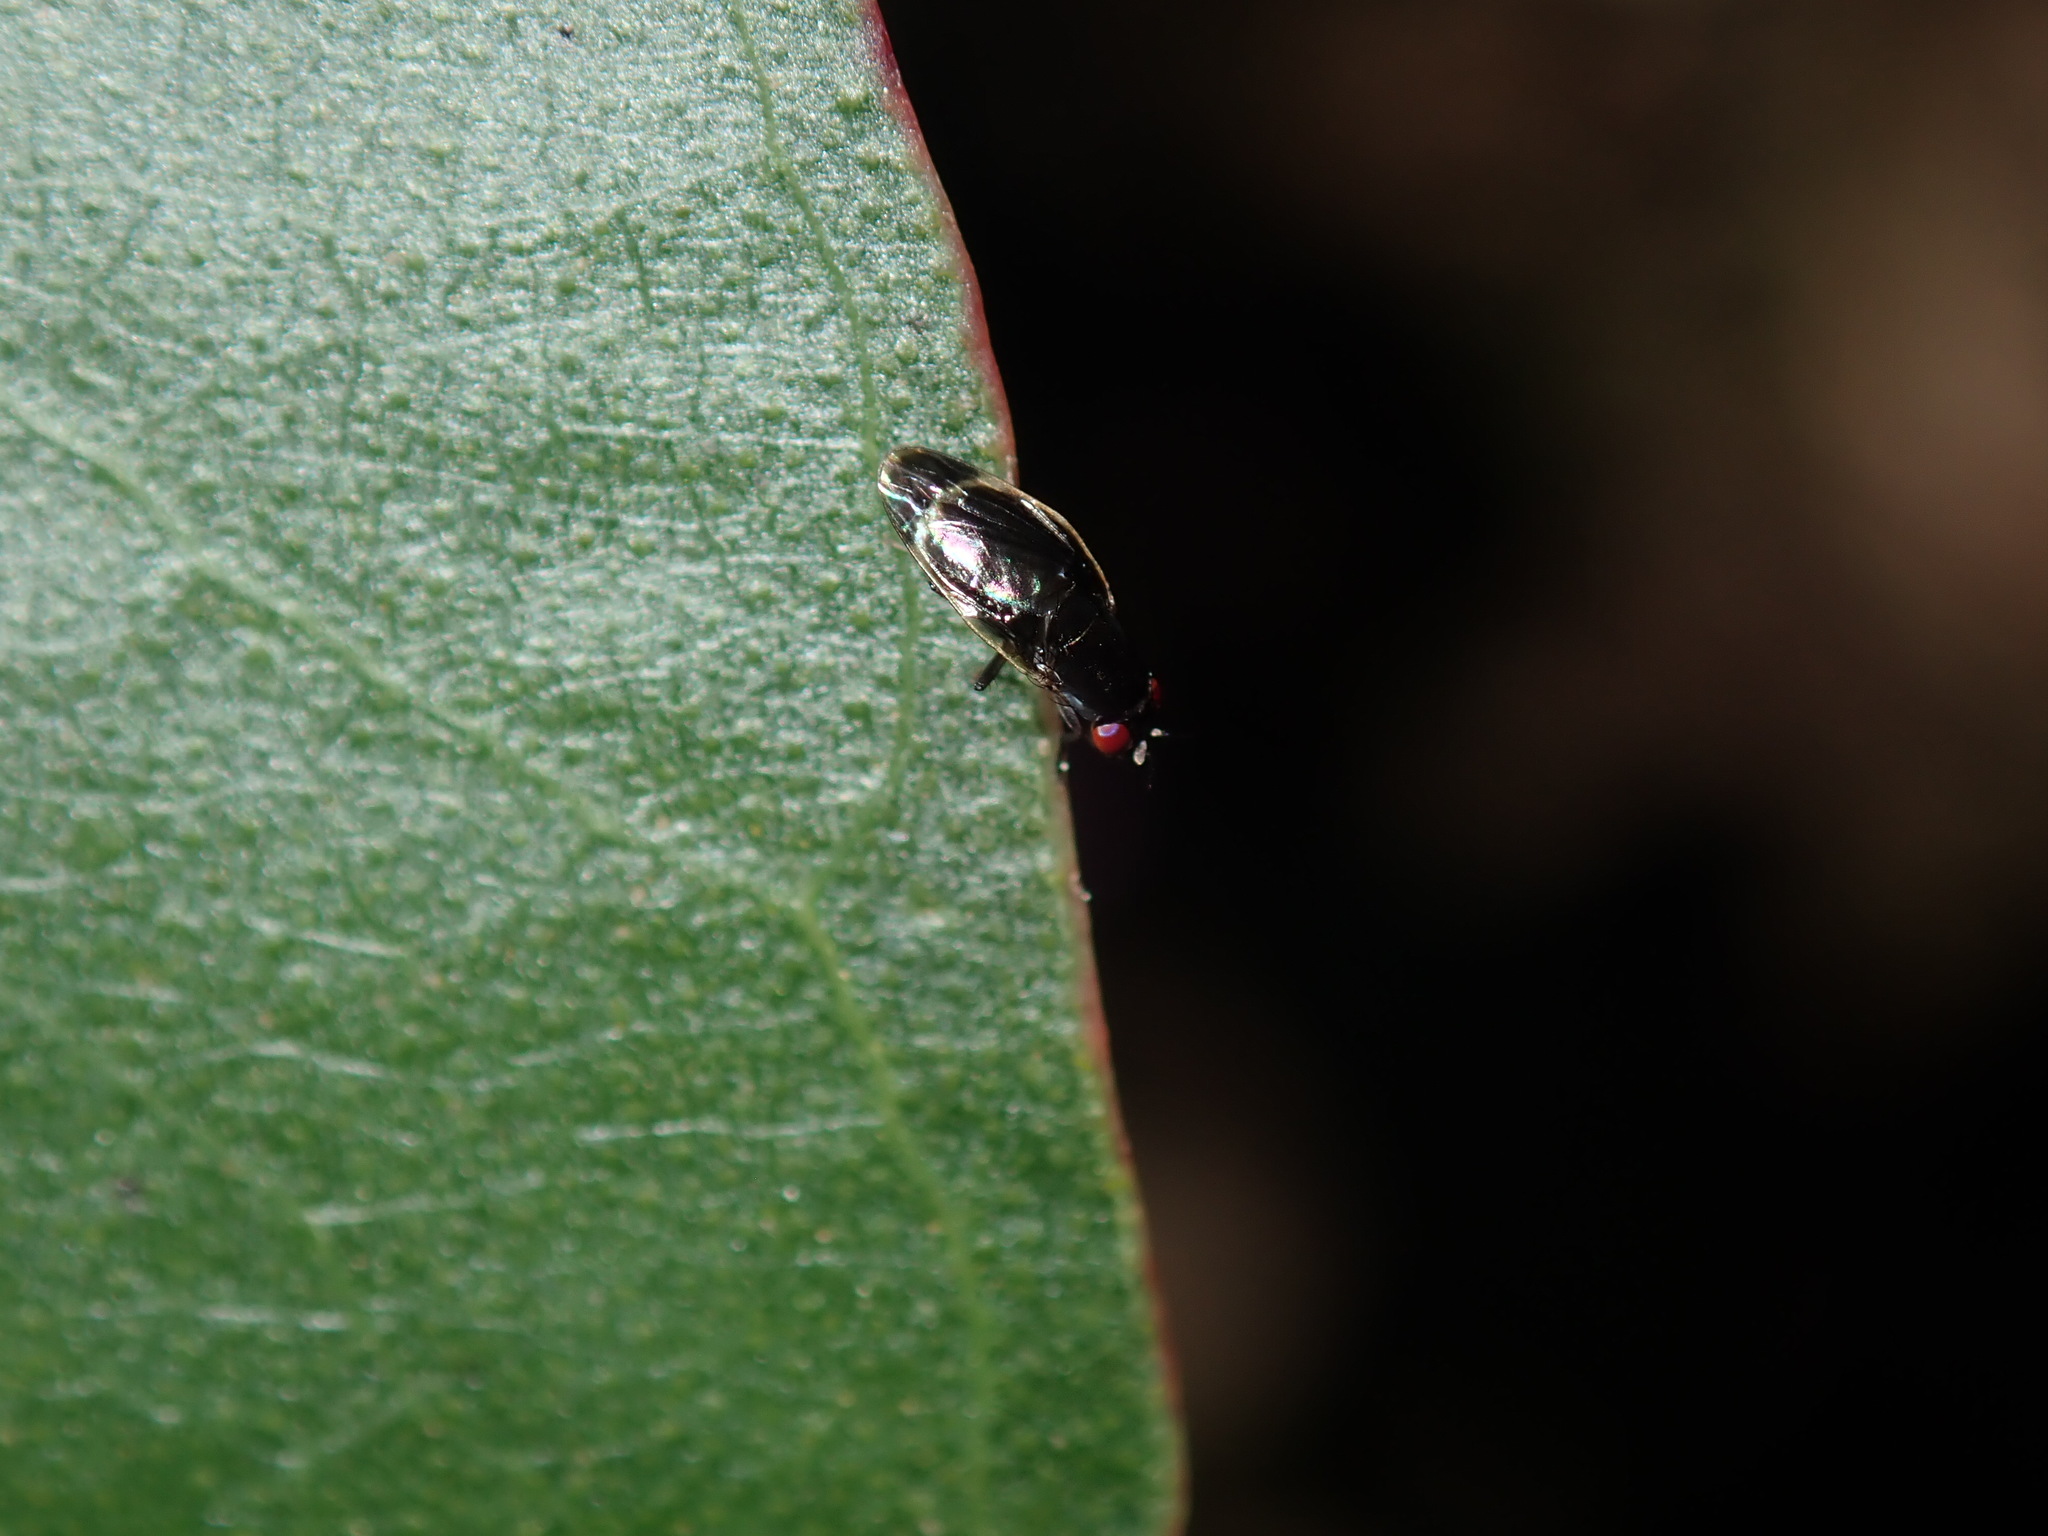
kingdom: Animalia
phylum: Arthropoda
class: Insecta
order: Diptera
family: Lauxaniidae
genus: Depressa
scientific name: Depressa albicosta
